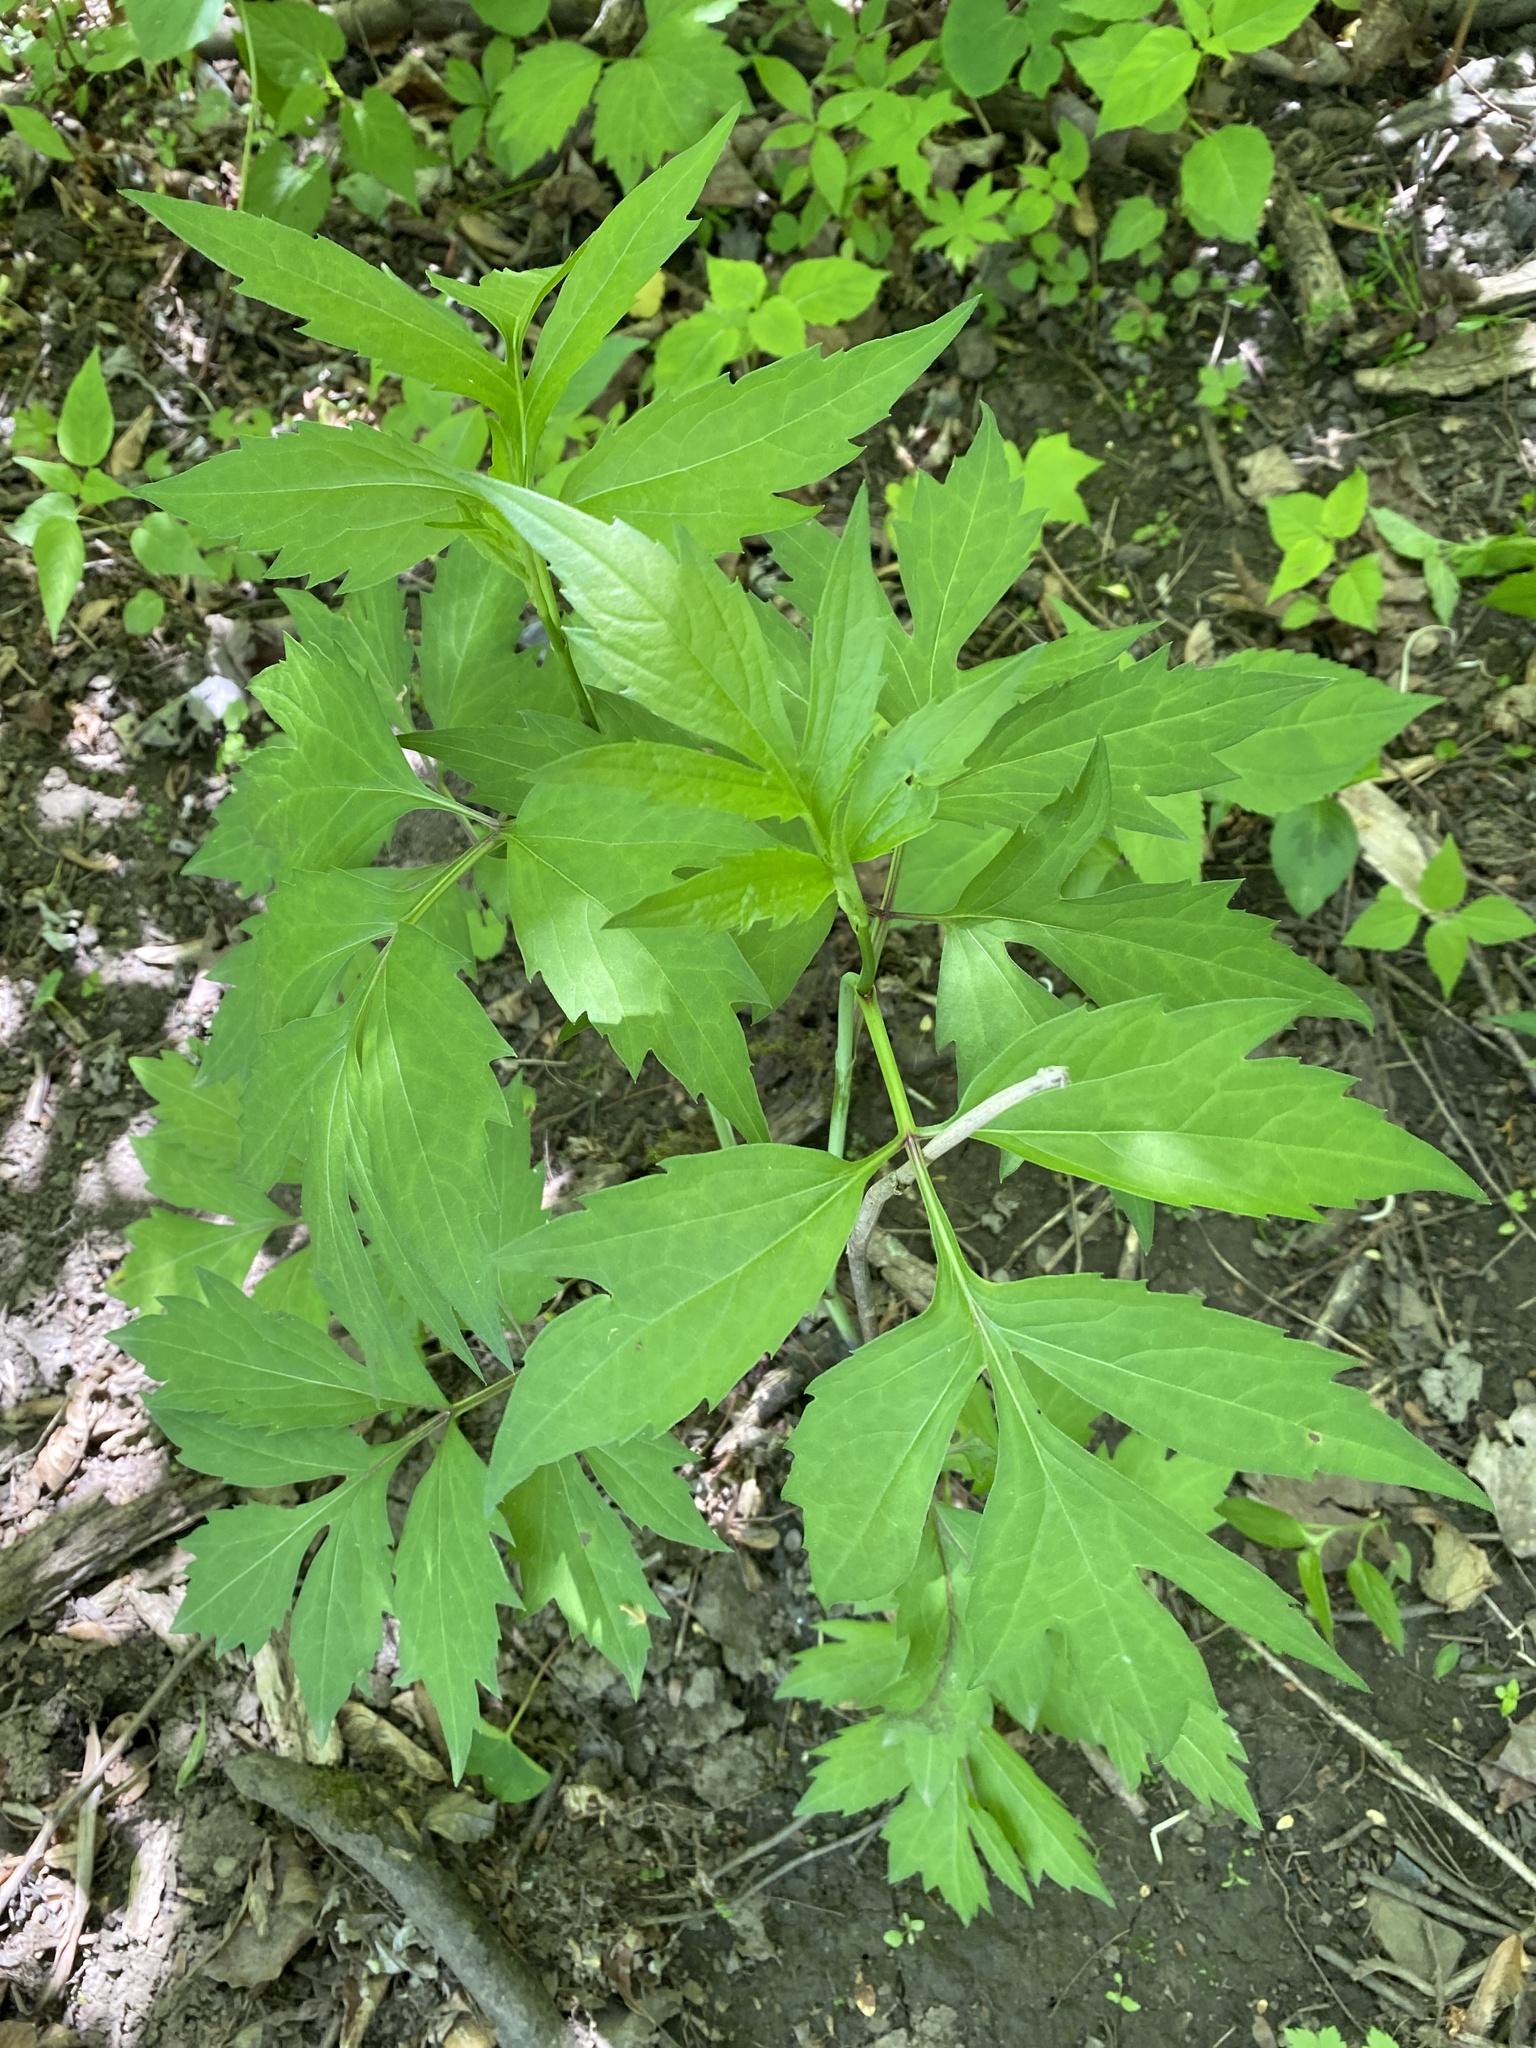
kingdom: Plantae
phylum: Tracheophyta
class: Magnoliopsida
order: Asterales
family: Asteraceae
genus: Rudbeckia
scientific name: Rudbeckia laciniata
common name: Coneflower
